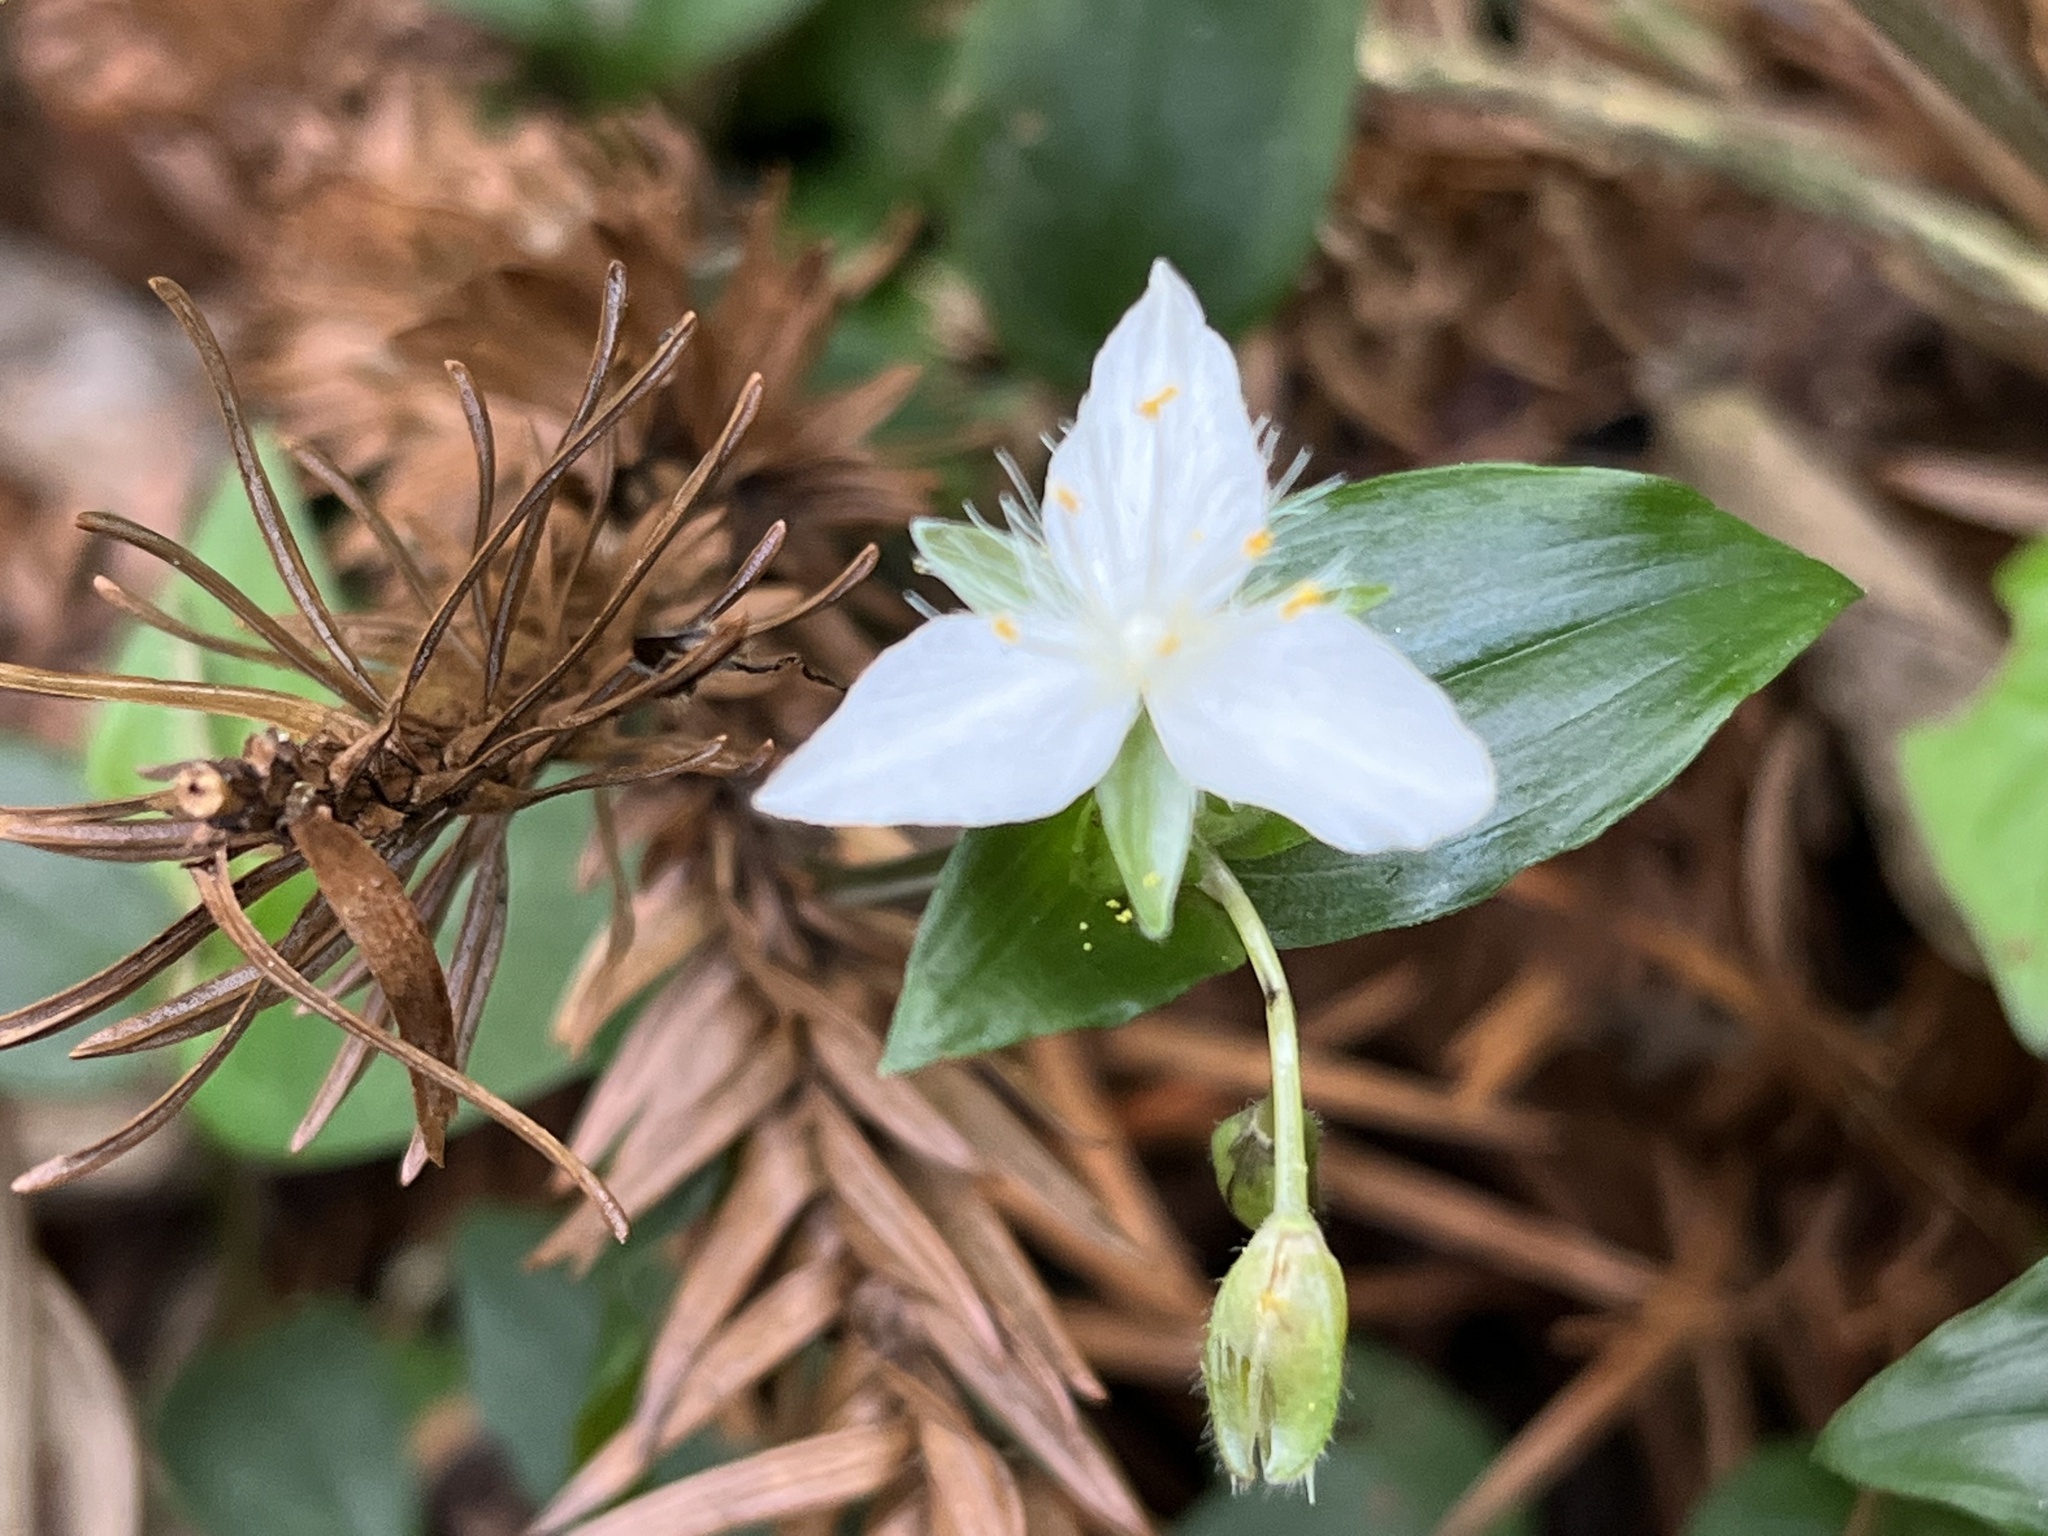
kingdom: Plantae
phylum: Tracheophyta
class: Liliopsida
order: Commelinales
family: Commelinaceae
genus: Tradescantia
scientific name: Tradescantia fluminensis
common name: Wandering-jew
